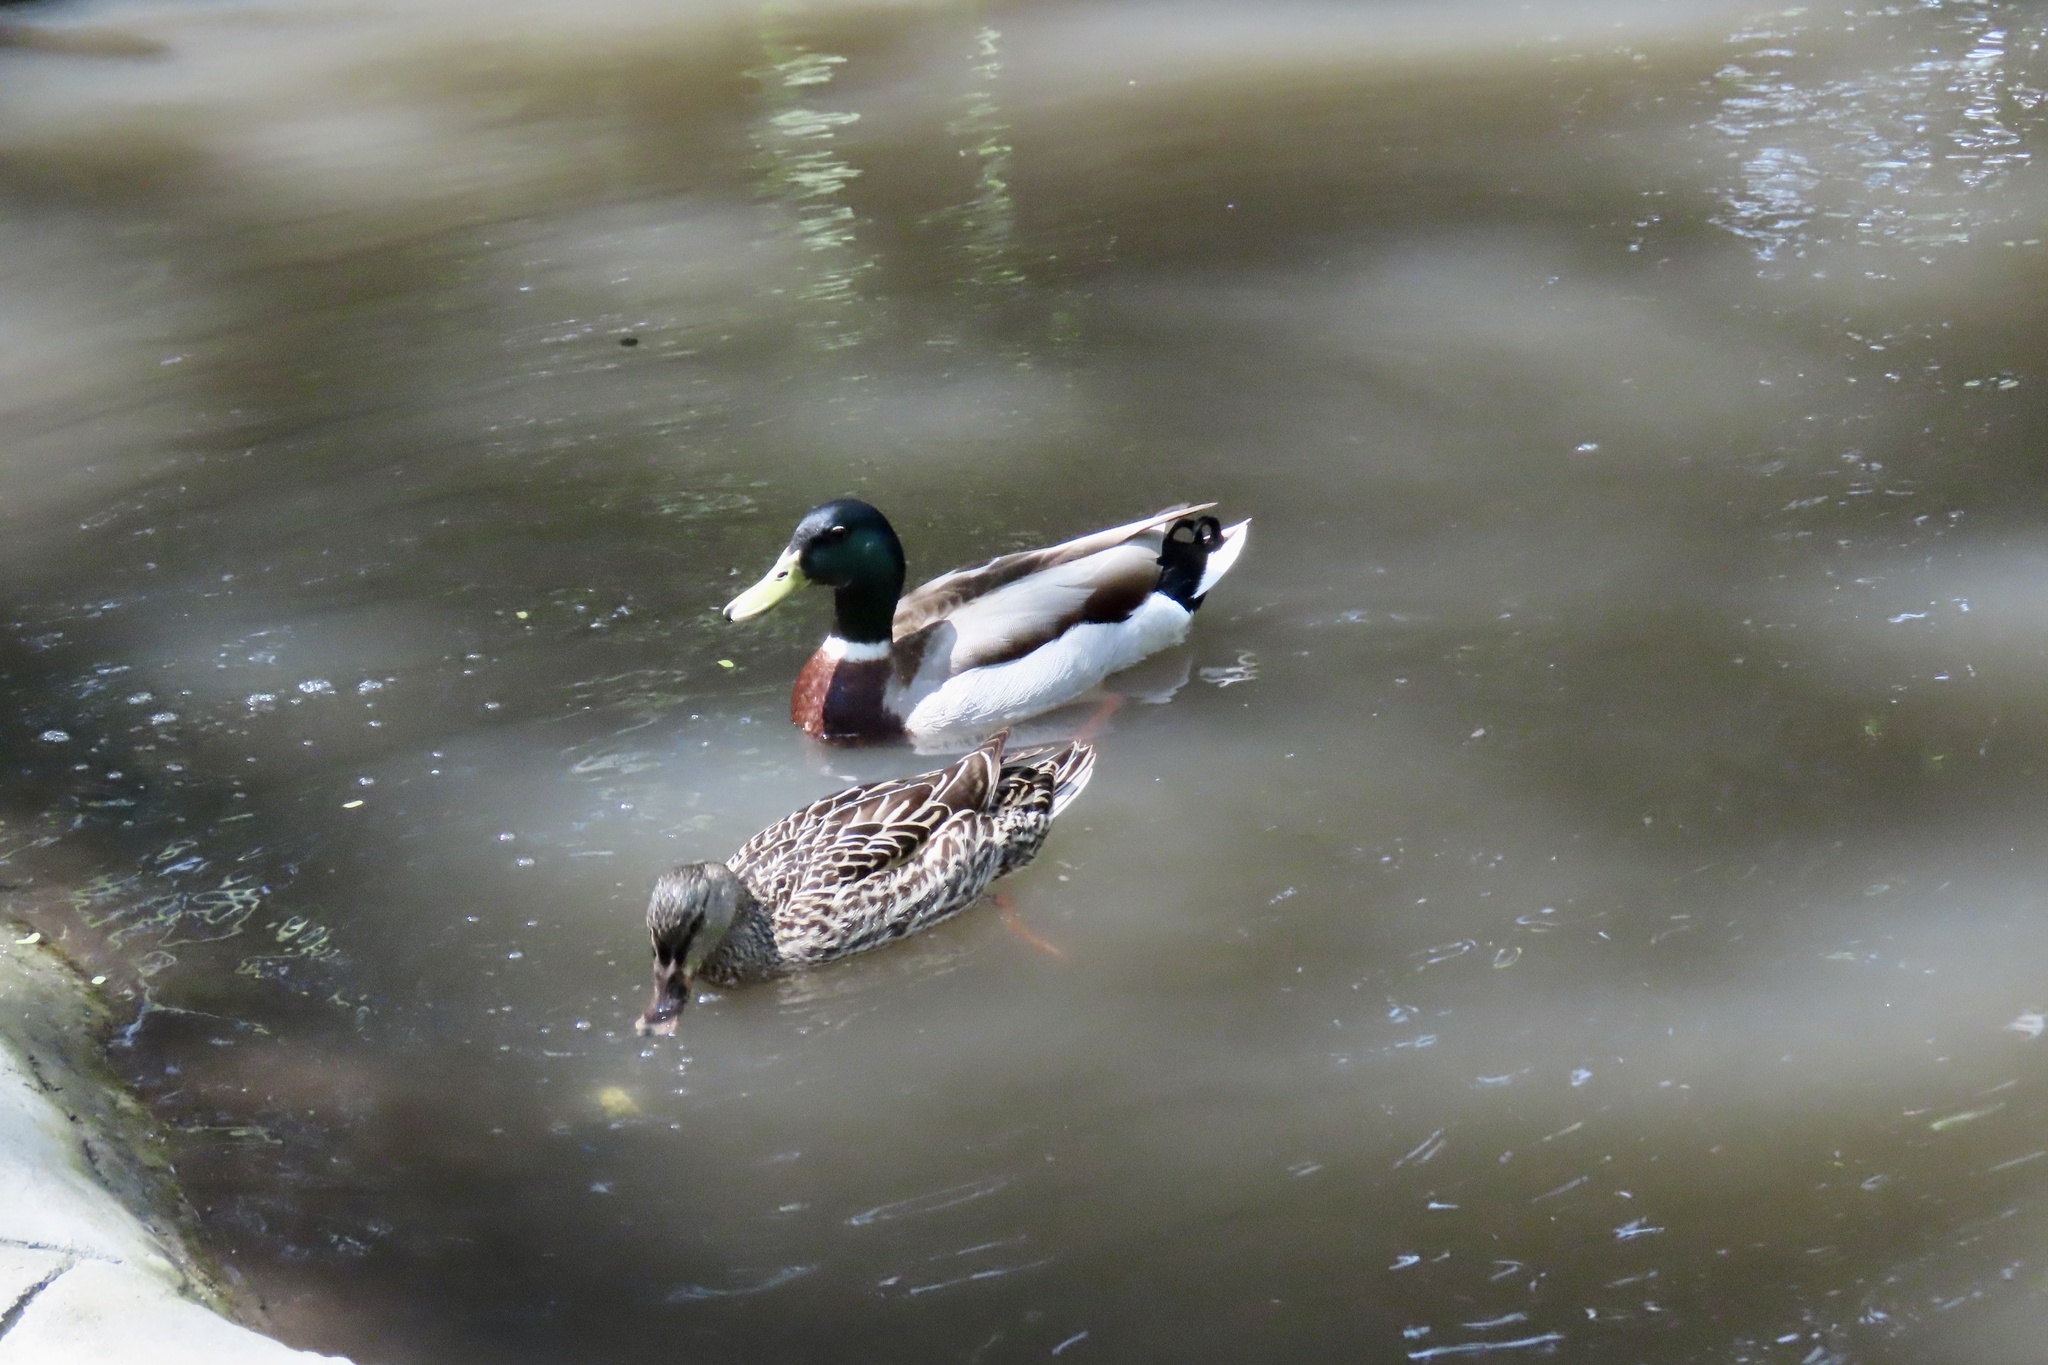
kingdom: Animalia
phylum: Chordata
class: Aves
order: Anseriformes
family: Anatidae
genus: Anas
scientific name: Anas platyrhynchos
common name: Mallard
